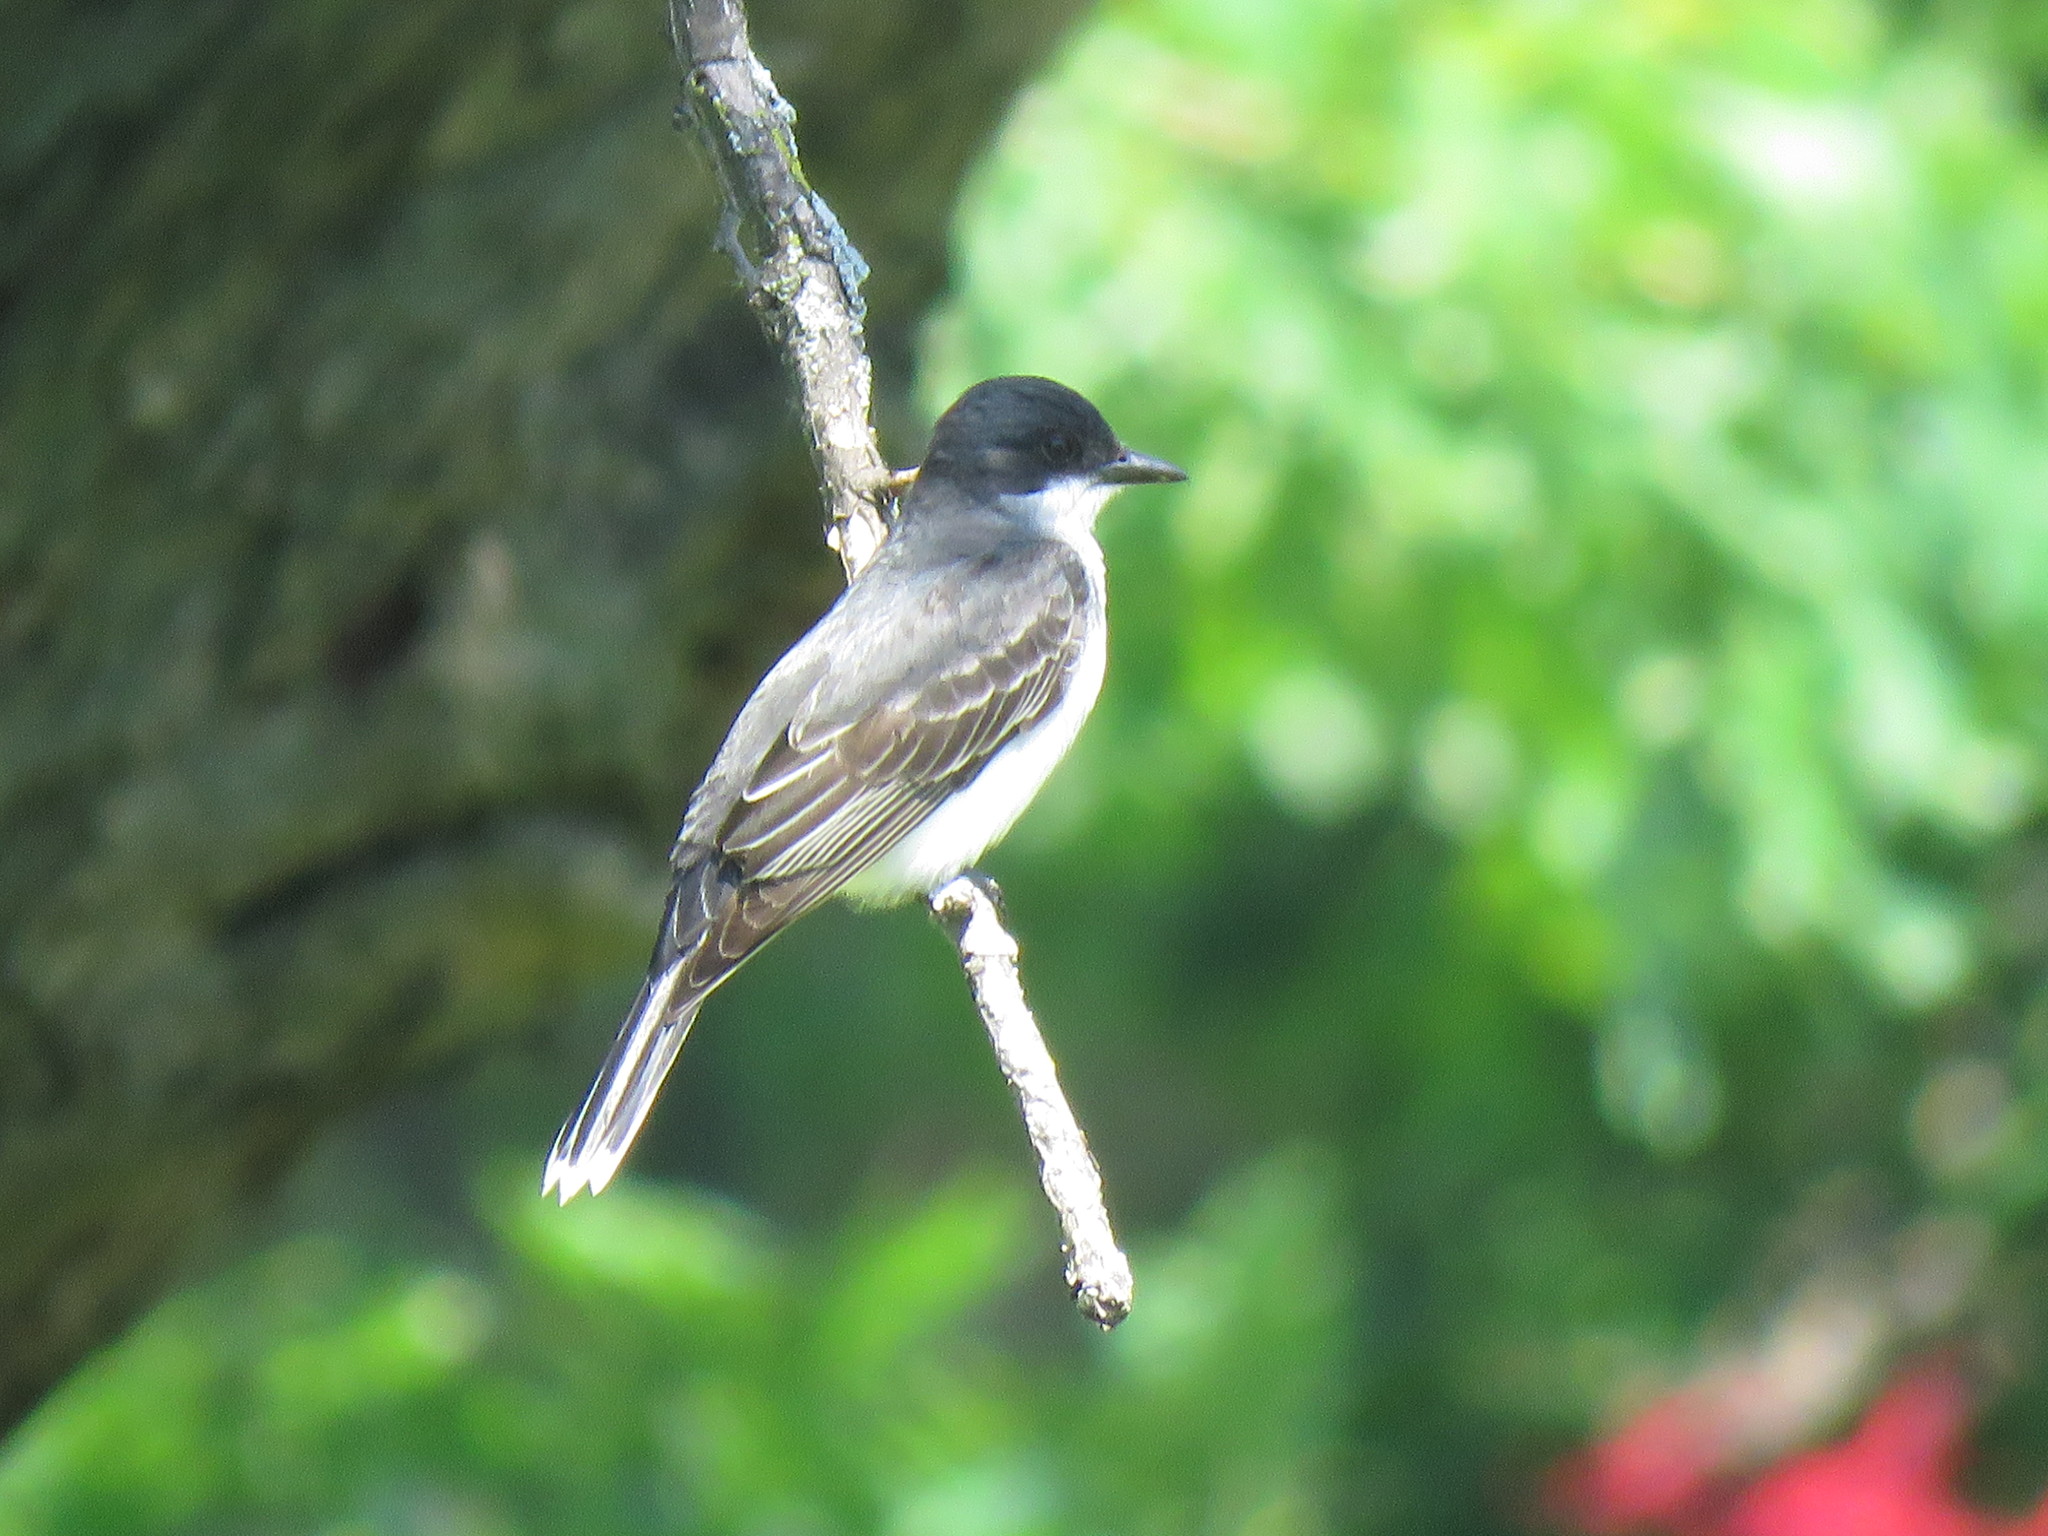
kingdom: Animalia
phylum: Chordata
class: Aves
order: Passeriformes
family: Tyrannidae
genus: Tyrannus
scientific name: Tyrannus tyrannus
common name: Eastern kingbird
